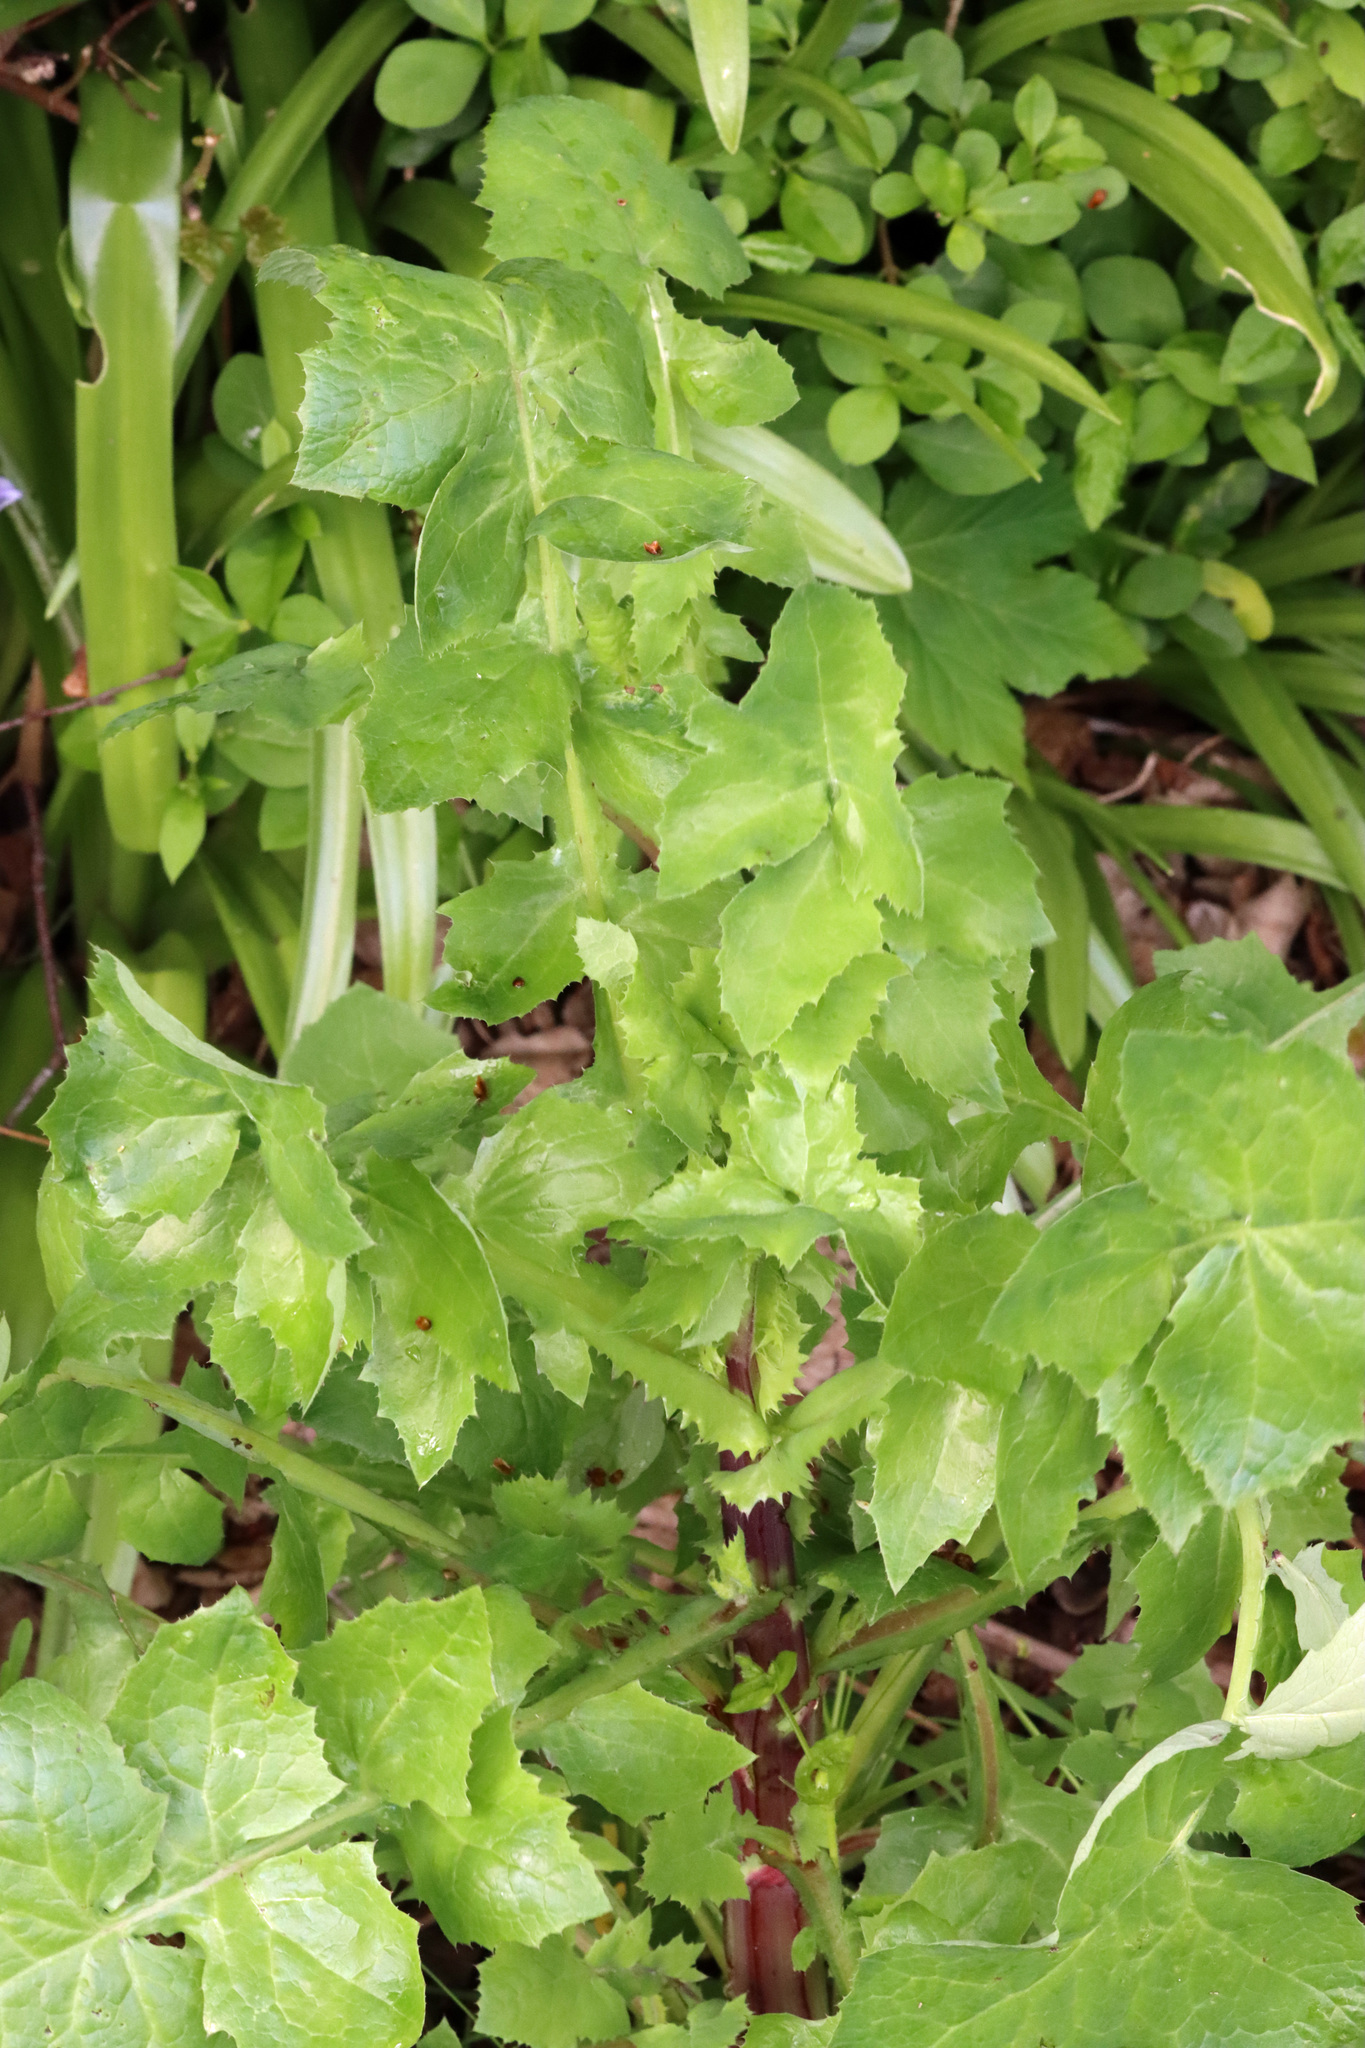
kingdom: Plantae
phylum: Tracheophyta
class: Magnoliopsida
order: Asterales
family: Asteraceae
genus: Sonchus
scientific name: Sonchus oleraceus
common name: Common sowthistle
